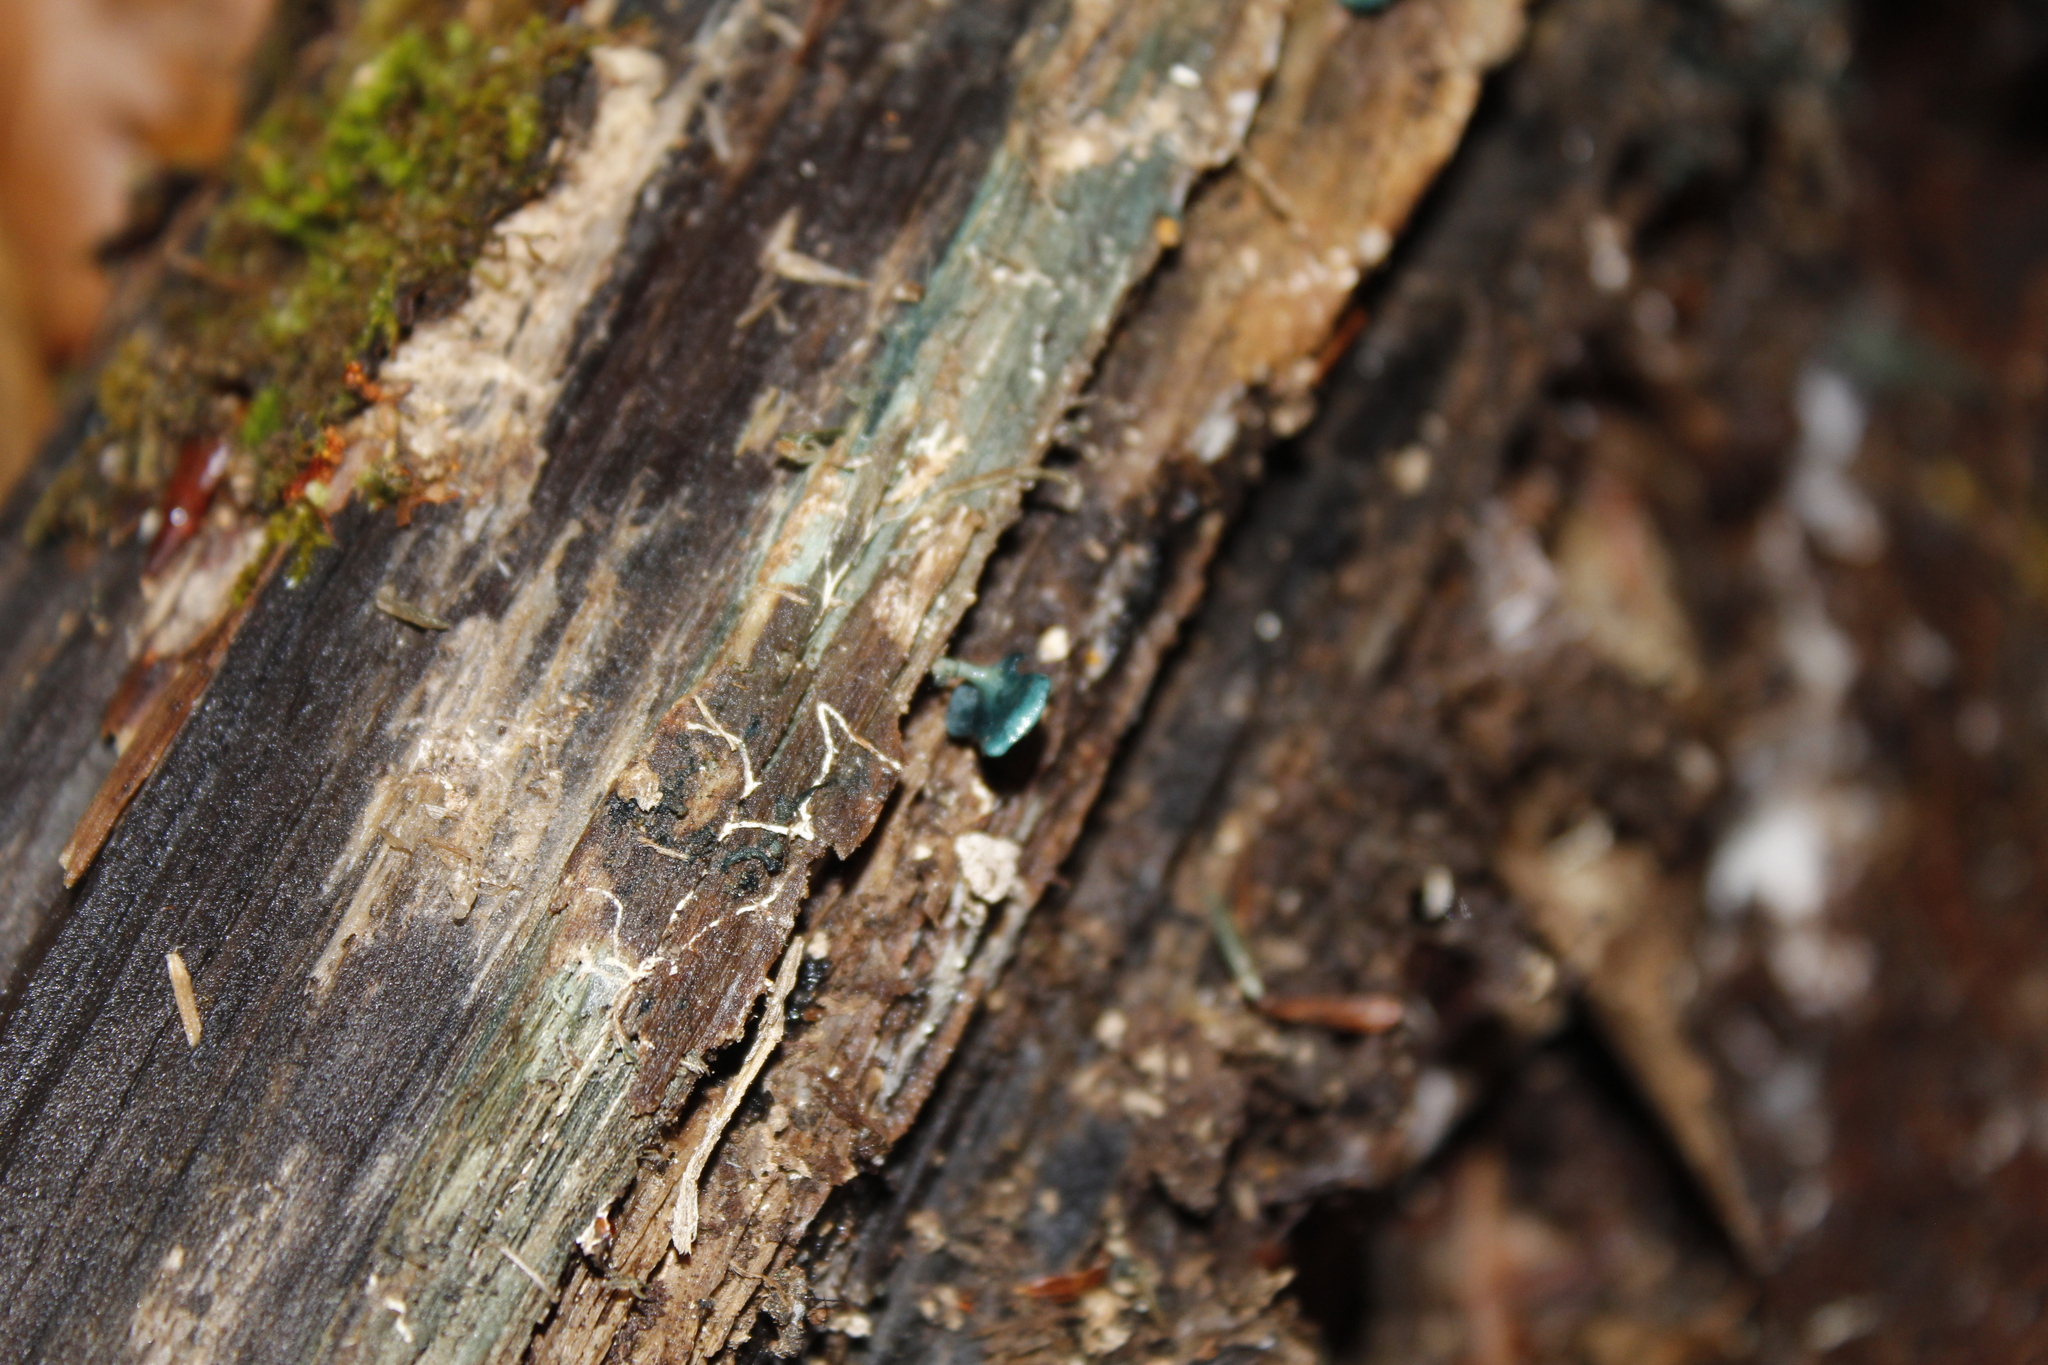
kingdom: Fungi
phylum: Ascomycota
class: Leotiomycetes
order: Helotiales
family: Chlorociboriaceae
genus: Chlorociboria
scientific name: Chlorociboria aeruginascens
